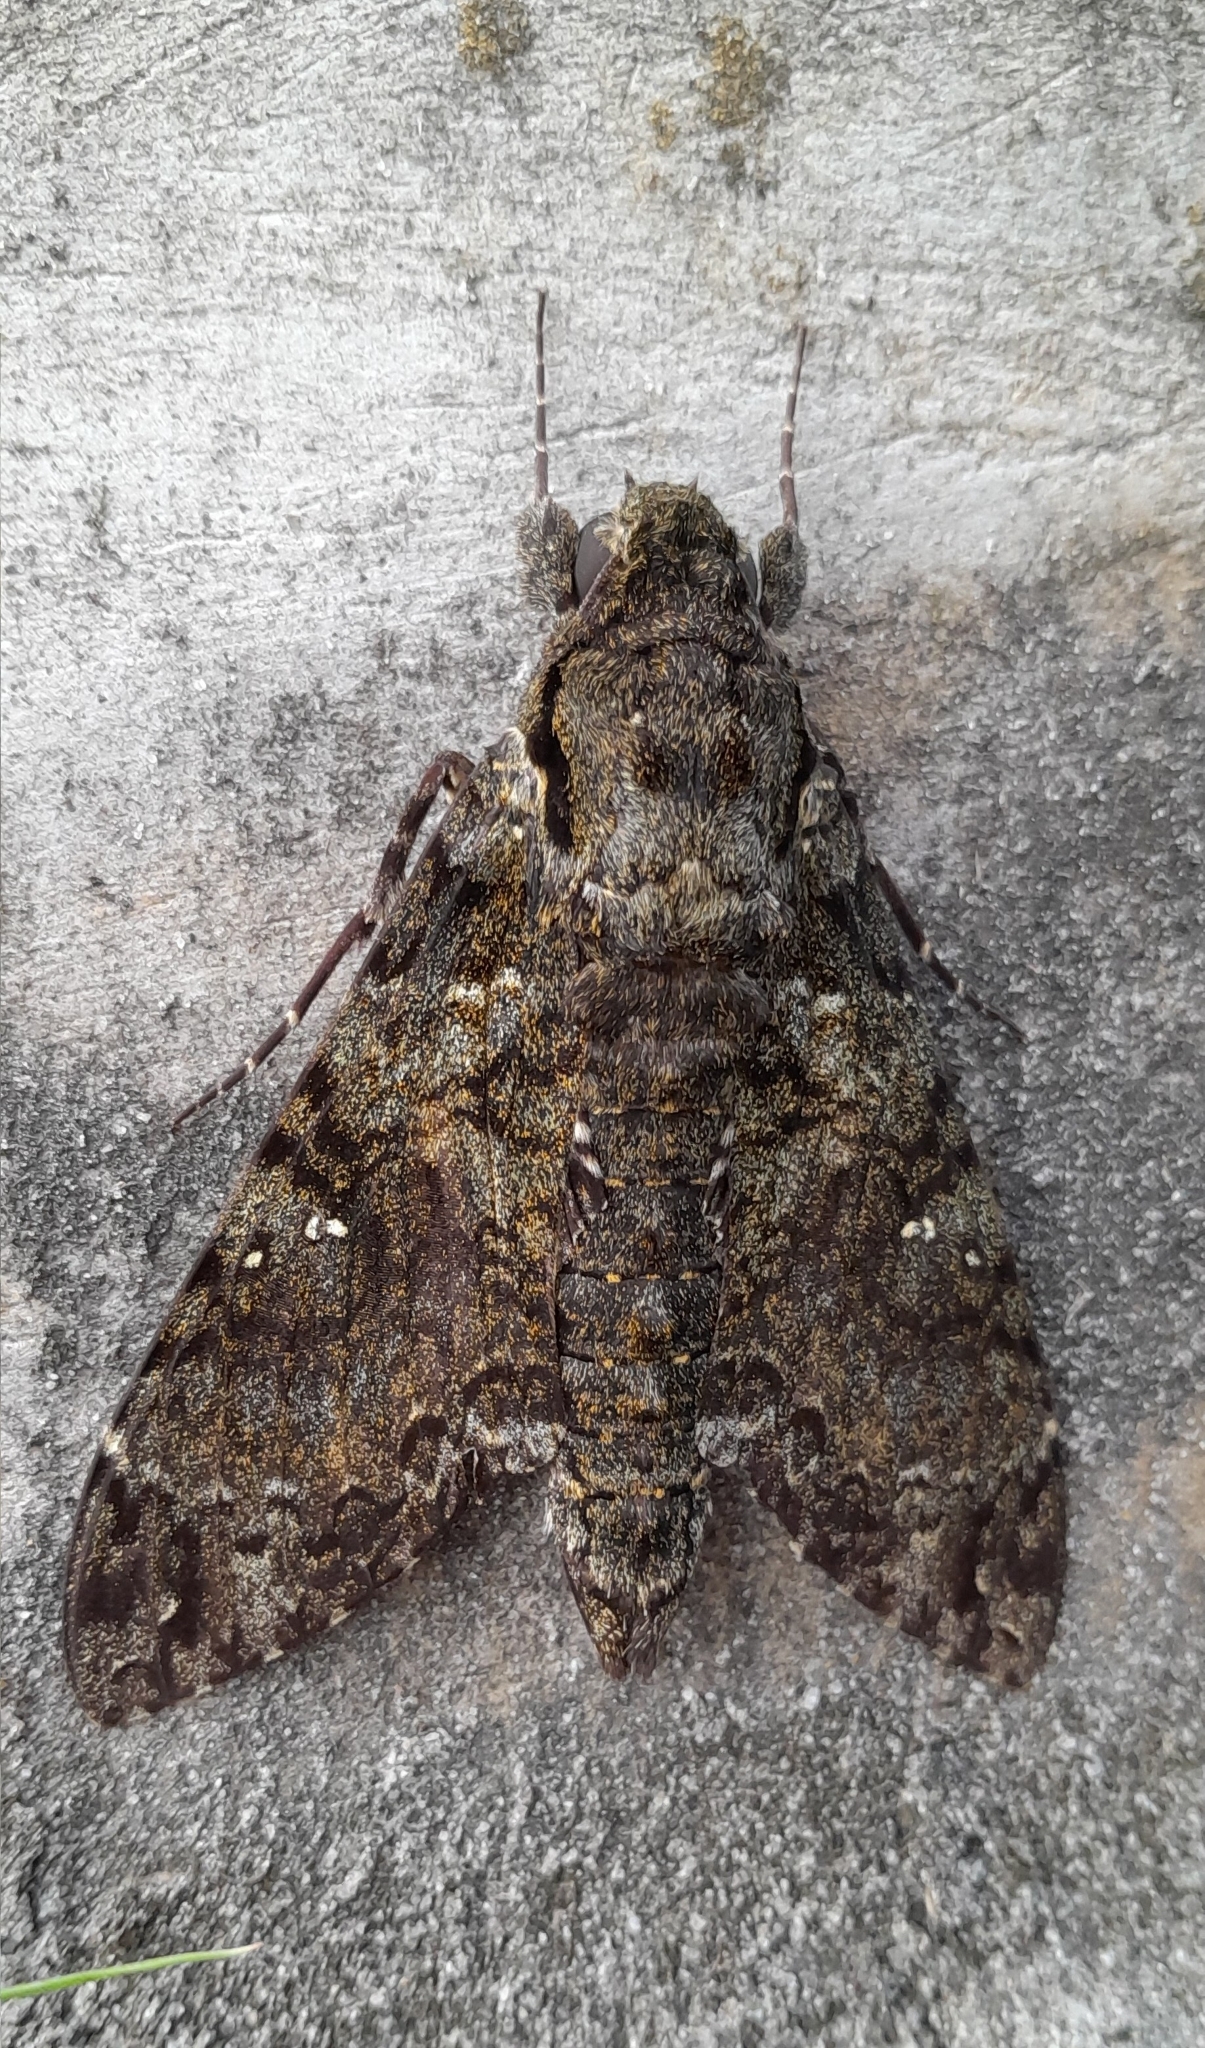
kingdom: Animalia
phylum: Arthropoda
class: Insecta
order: Lepidoptera
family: Sphingidae
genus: Cocytius
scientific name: Cocytius duponchel
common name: Duponchel's sphinx
